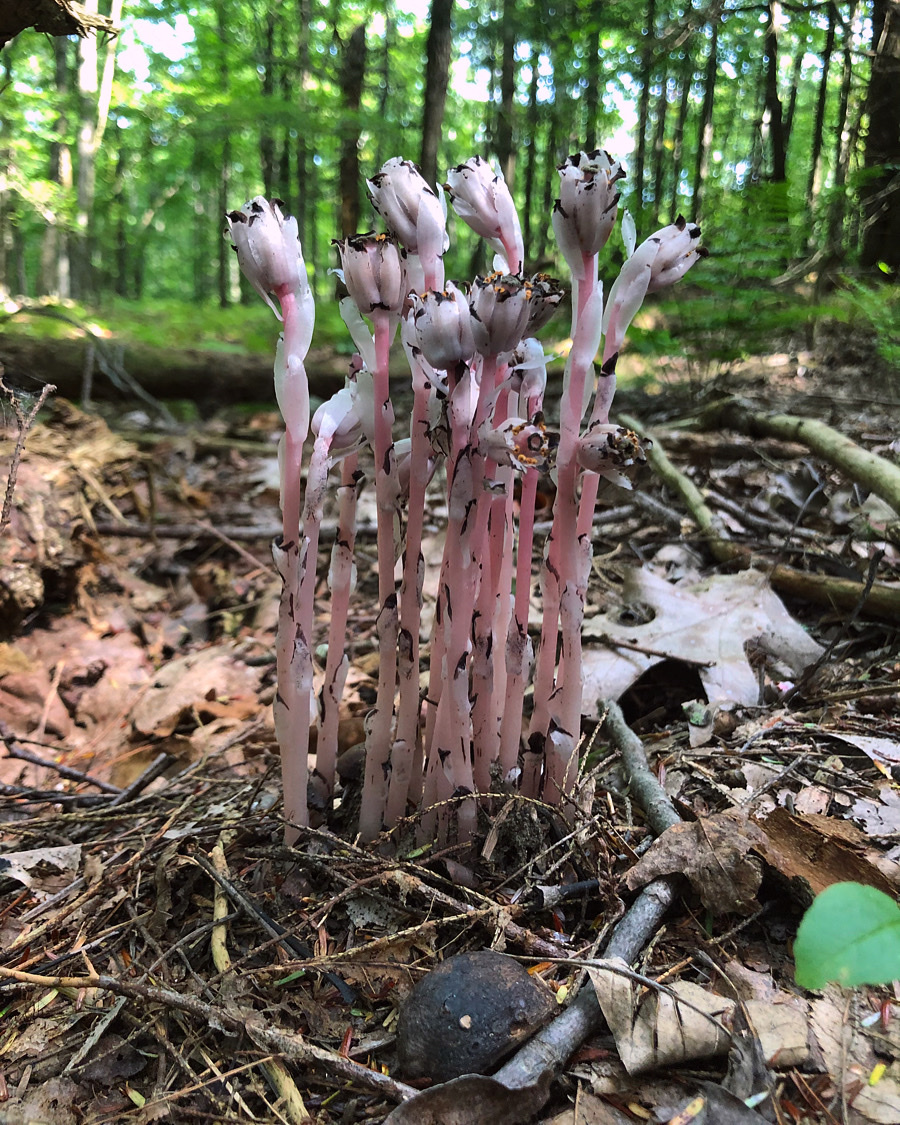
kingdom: Plantae
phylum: Tracheophyta
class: Magnoliopsida
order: Ericales
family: Ericaceae
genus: Monotropa
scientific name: Monotropa uniflora
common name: Convulsion root
